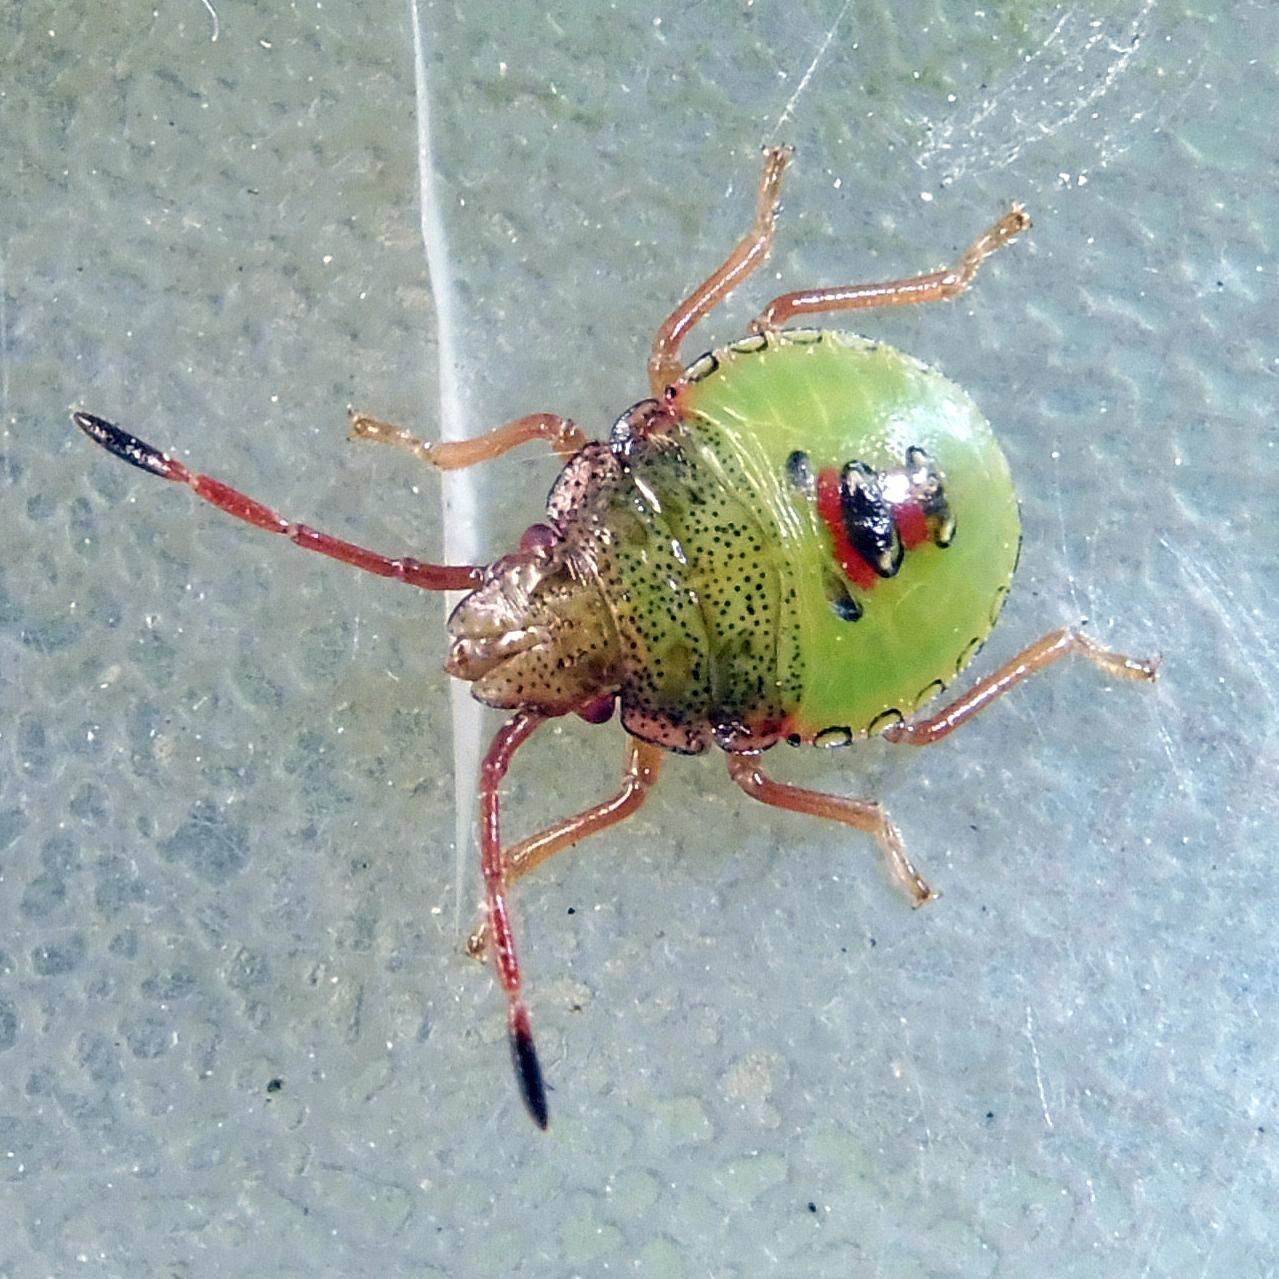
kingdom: Animalia
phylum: Arthropoda
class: Insecta
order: Hemiptera
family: Acanthosomatidae
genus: Acanthosoma
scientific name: Acanthosoma haemorrhoidale
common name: Hawthorn shieldbug
